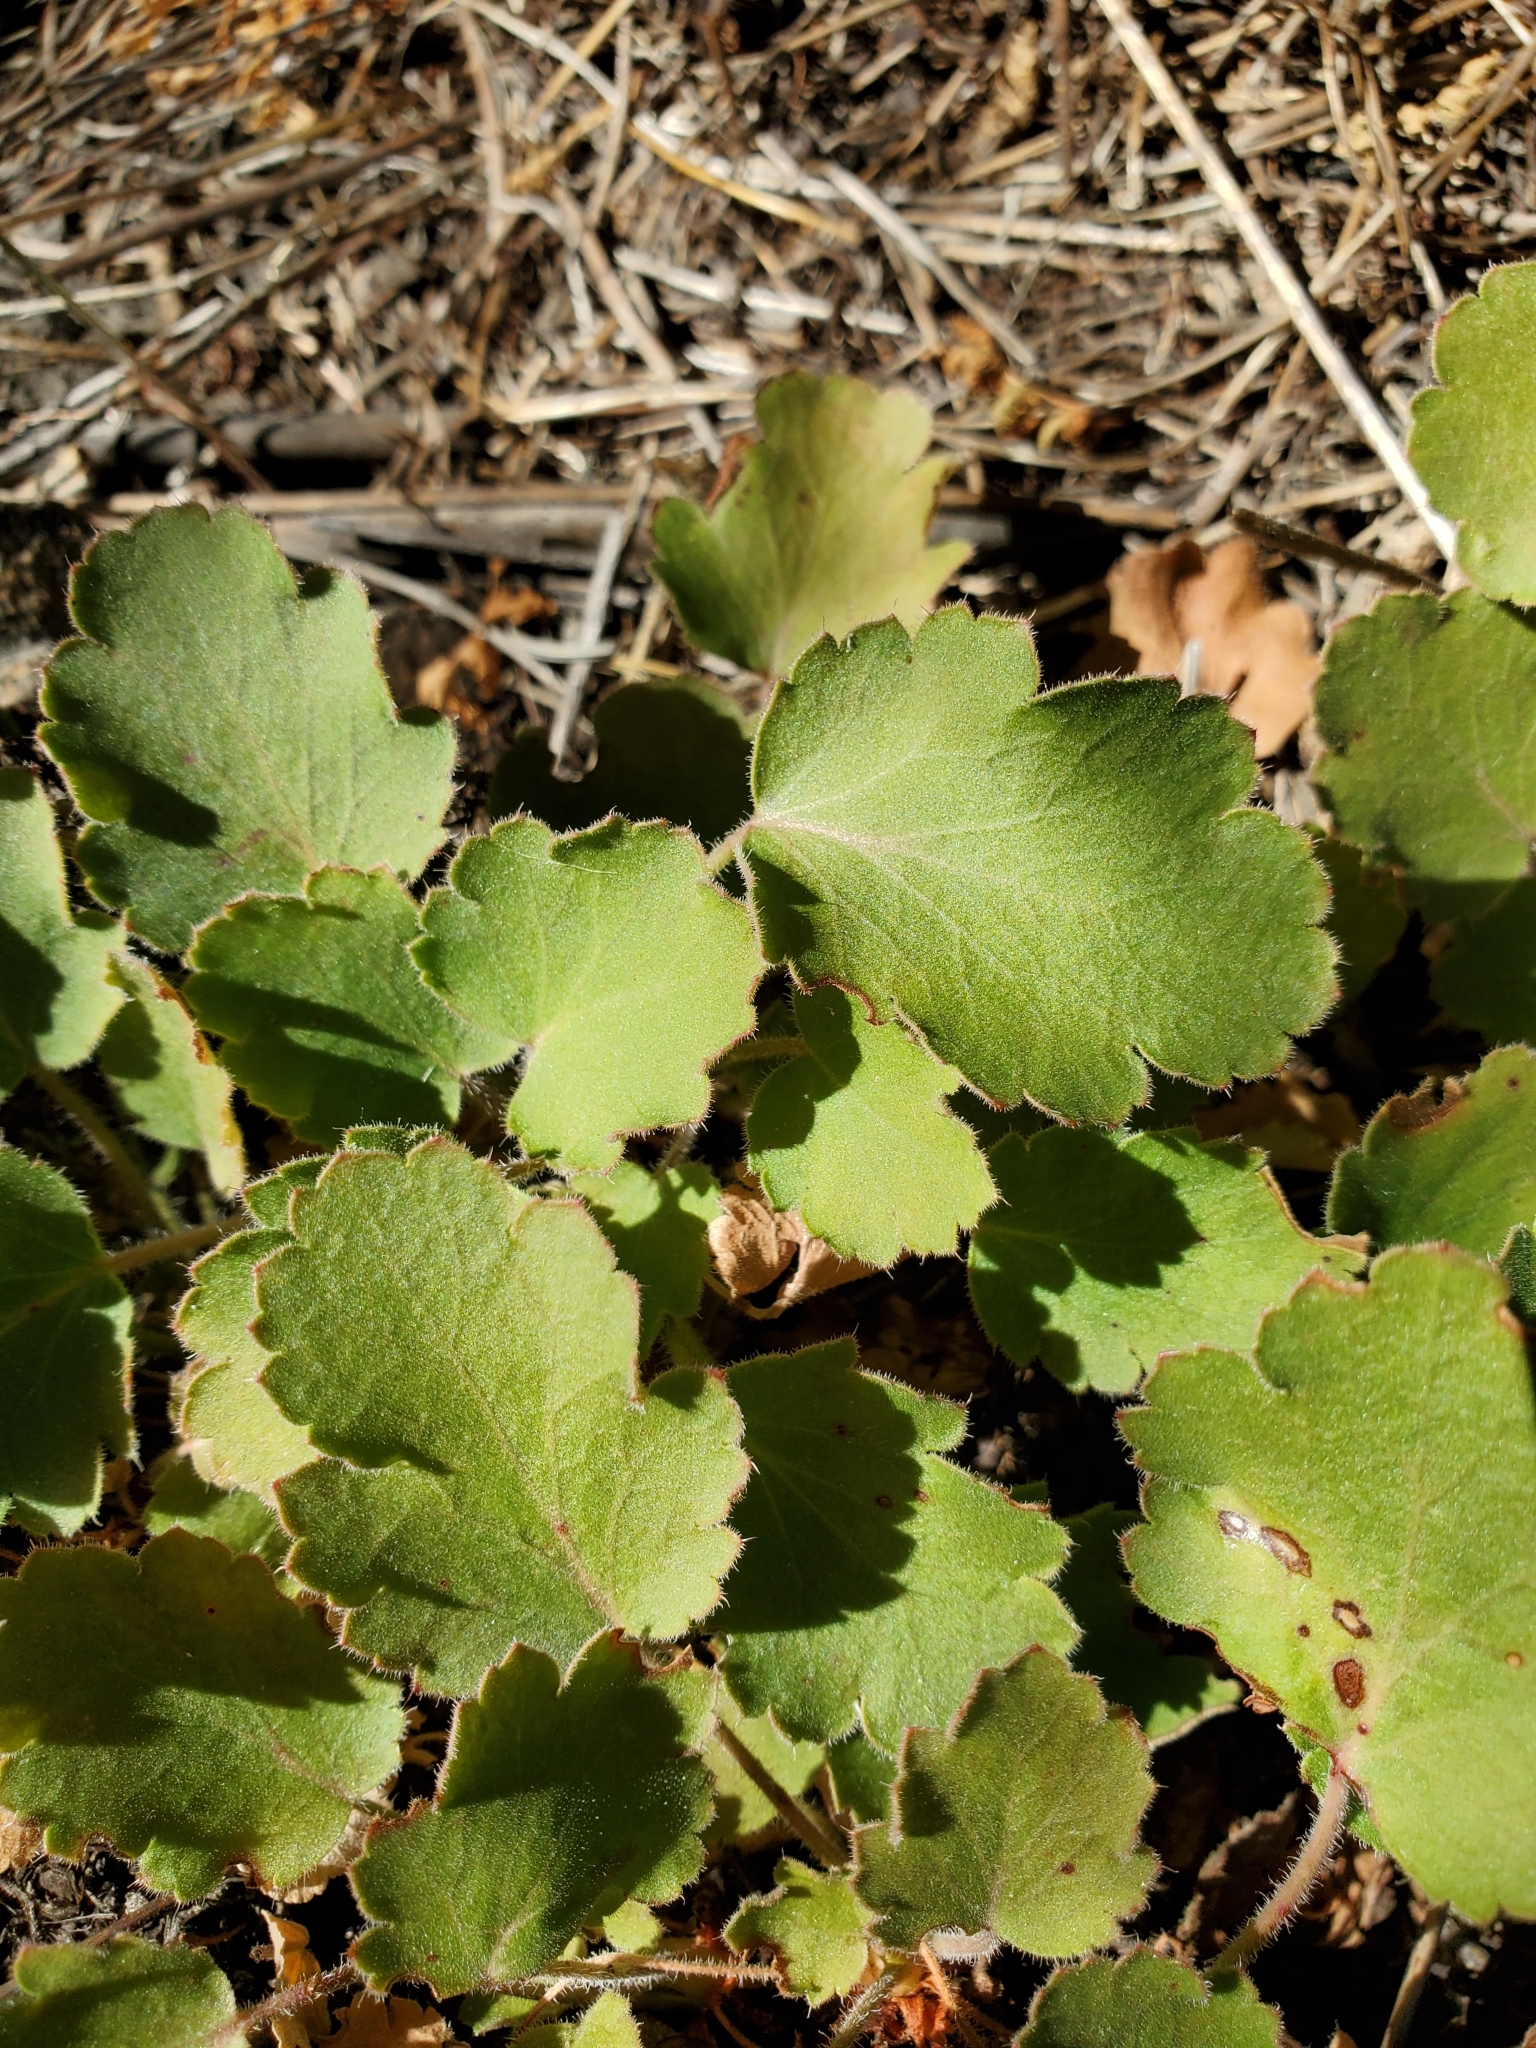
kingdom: Plantae
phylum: Tracheophyta
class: Magnoliopsida
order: Saxifragales
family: Saxifragaceae
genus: Heuchera
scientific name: Heuchera cylindrica
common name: Mat alumroot
